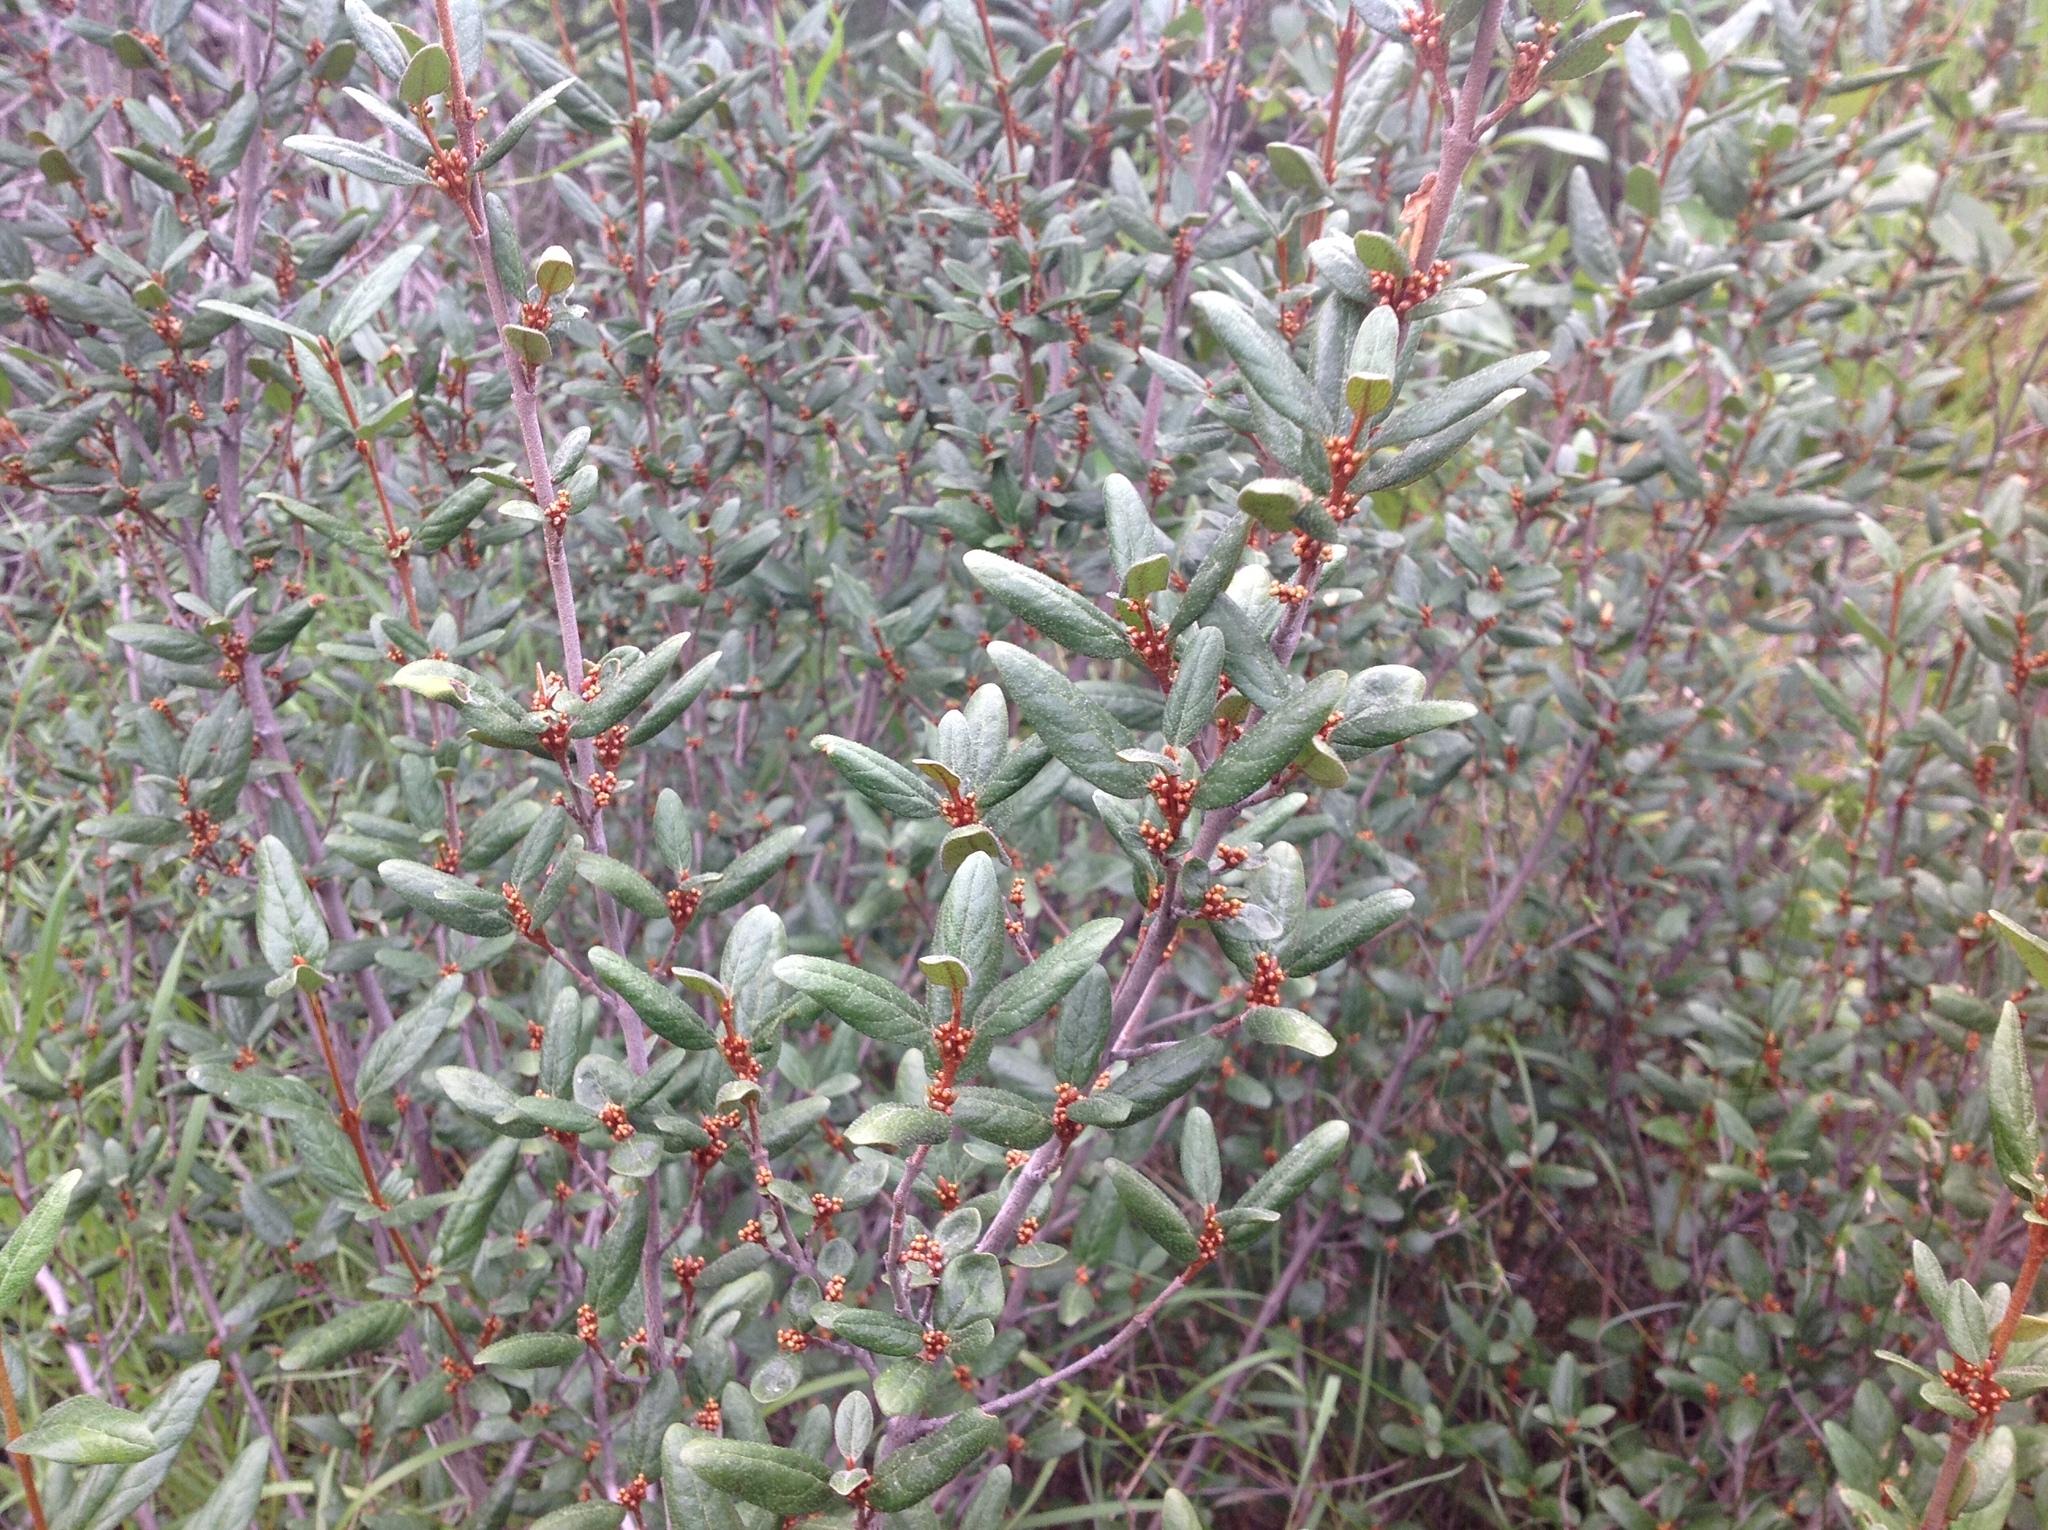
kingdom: Plantae
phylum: Tracheophyta
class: Magnoliopsida
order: Rosales
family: Elaeagnaceae
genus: Shepherdia
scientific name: Shepherdia canadensis
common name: Soapberry
